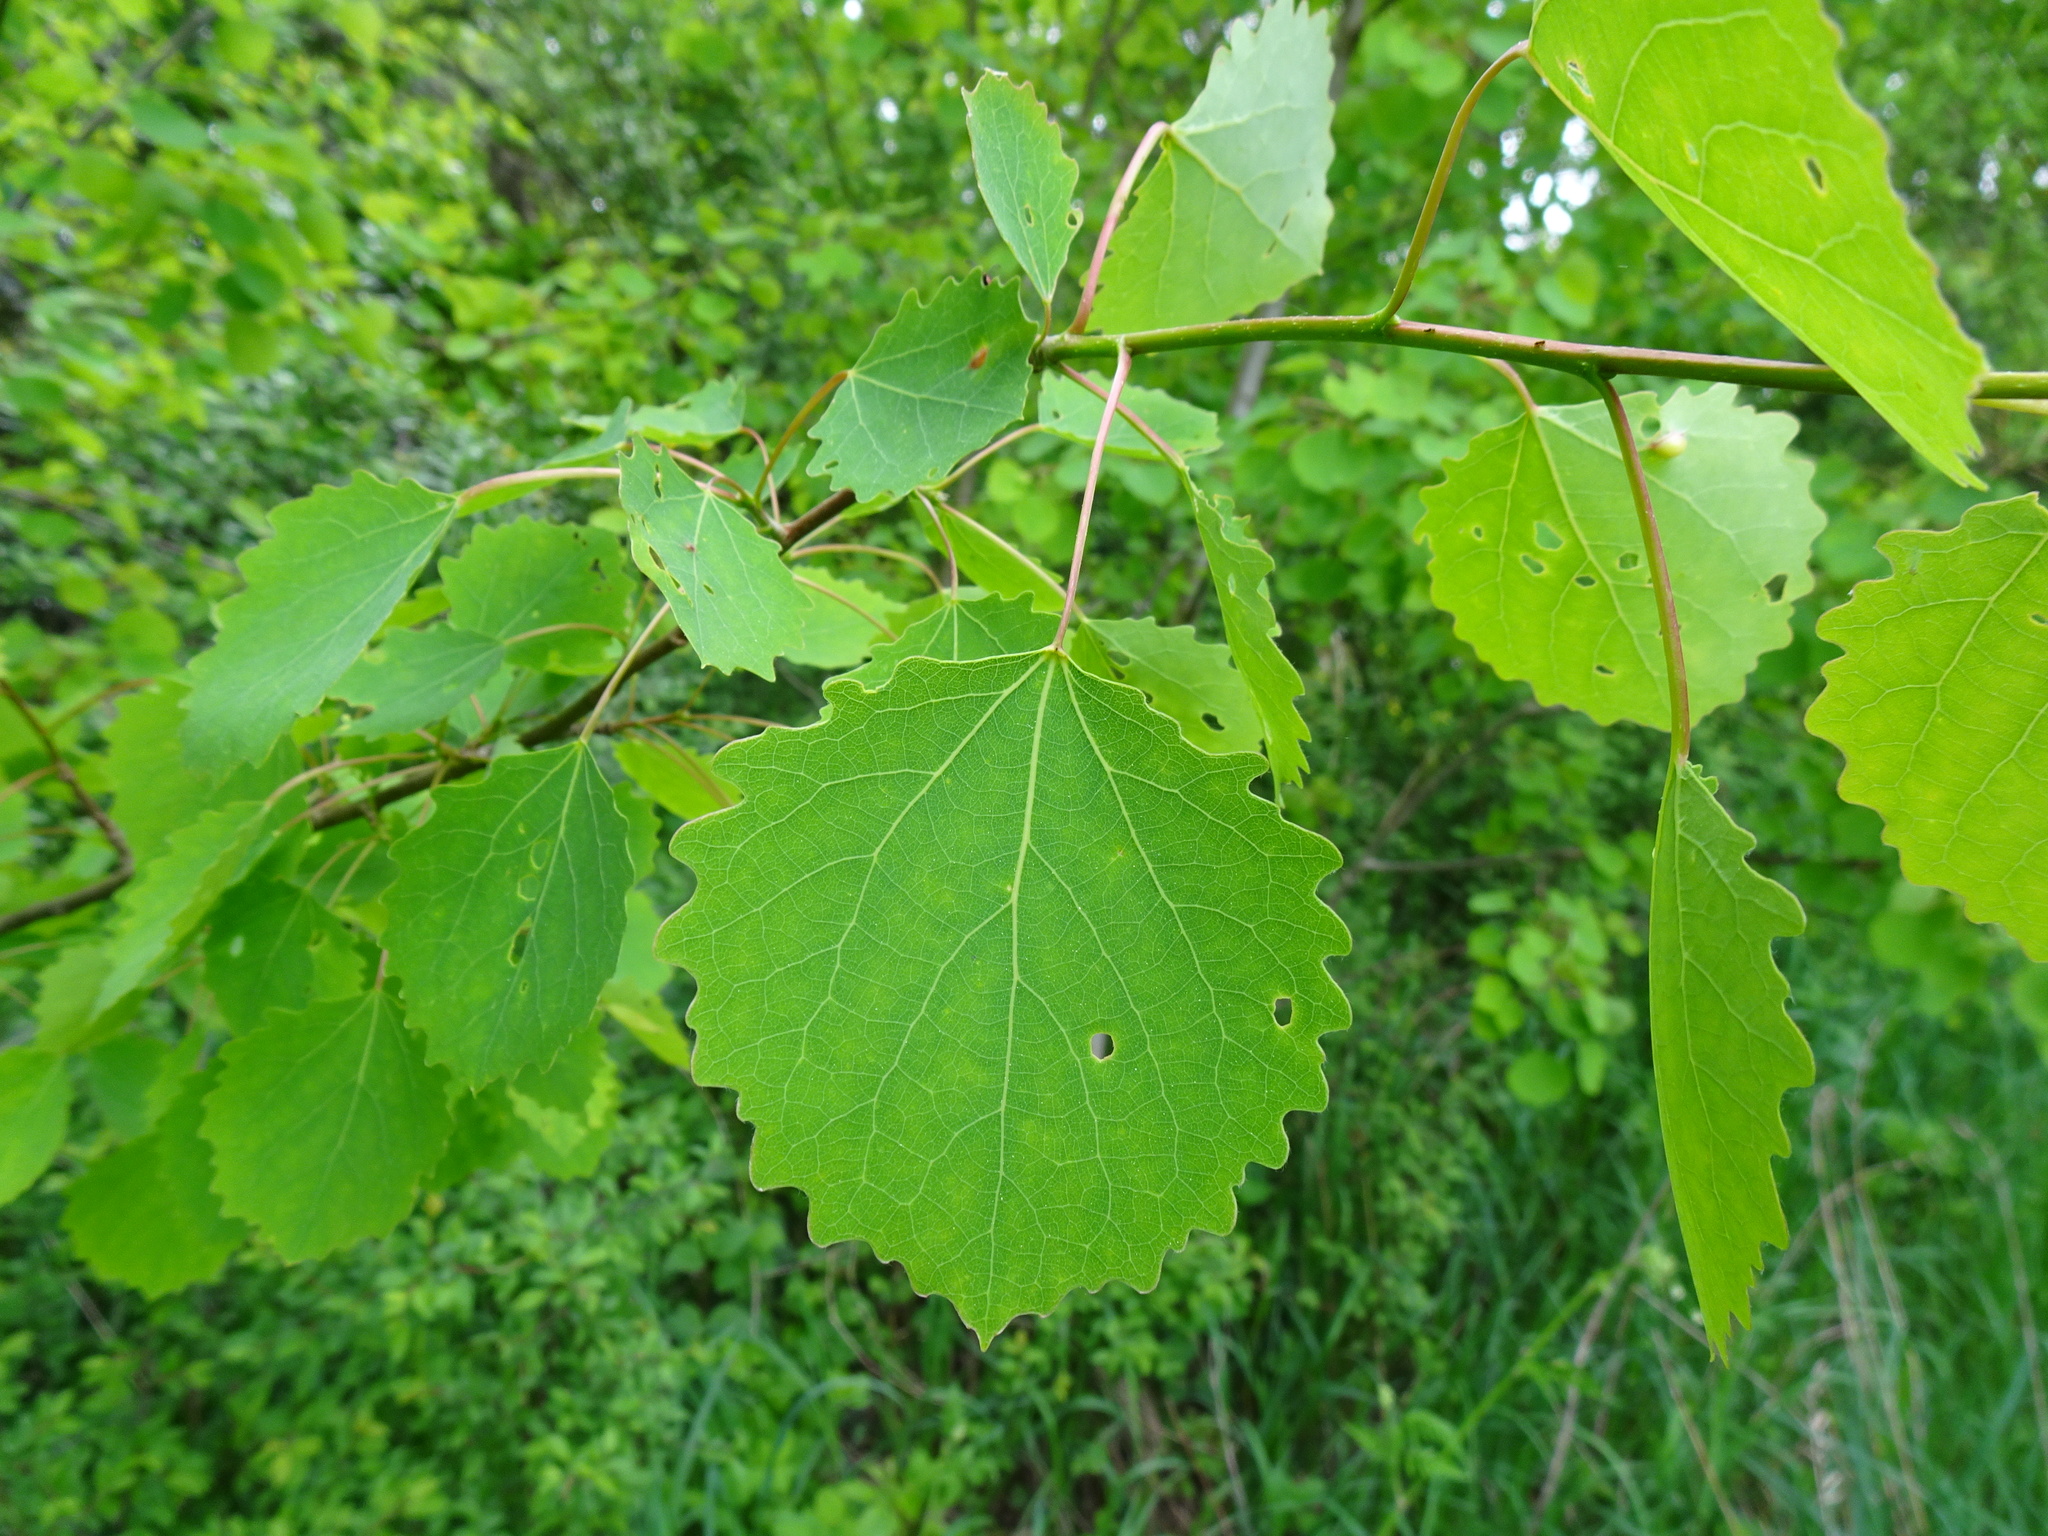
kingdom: Plantae
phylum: Tracheophyta
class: Magnoliopsida
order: Malpighiales
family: Salicaceae
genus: Populus
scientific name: Populus tremula
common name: European aspen
